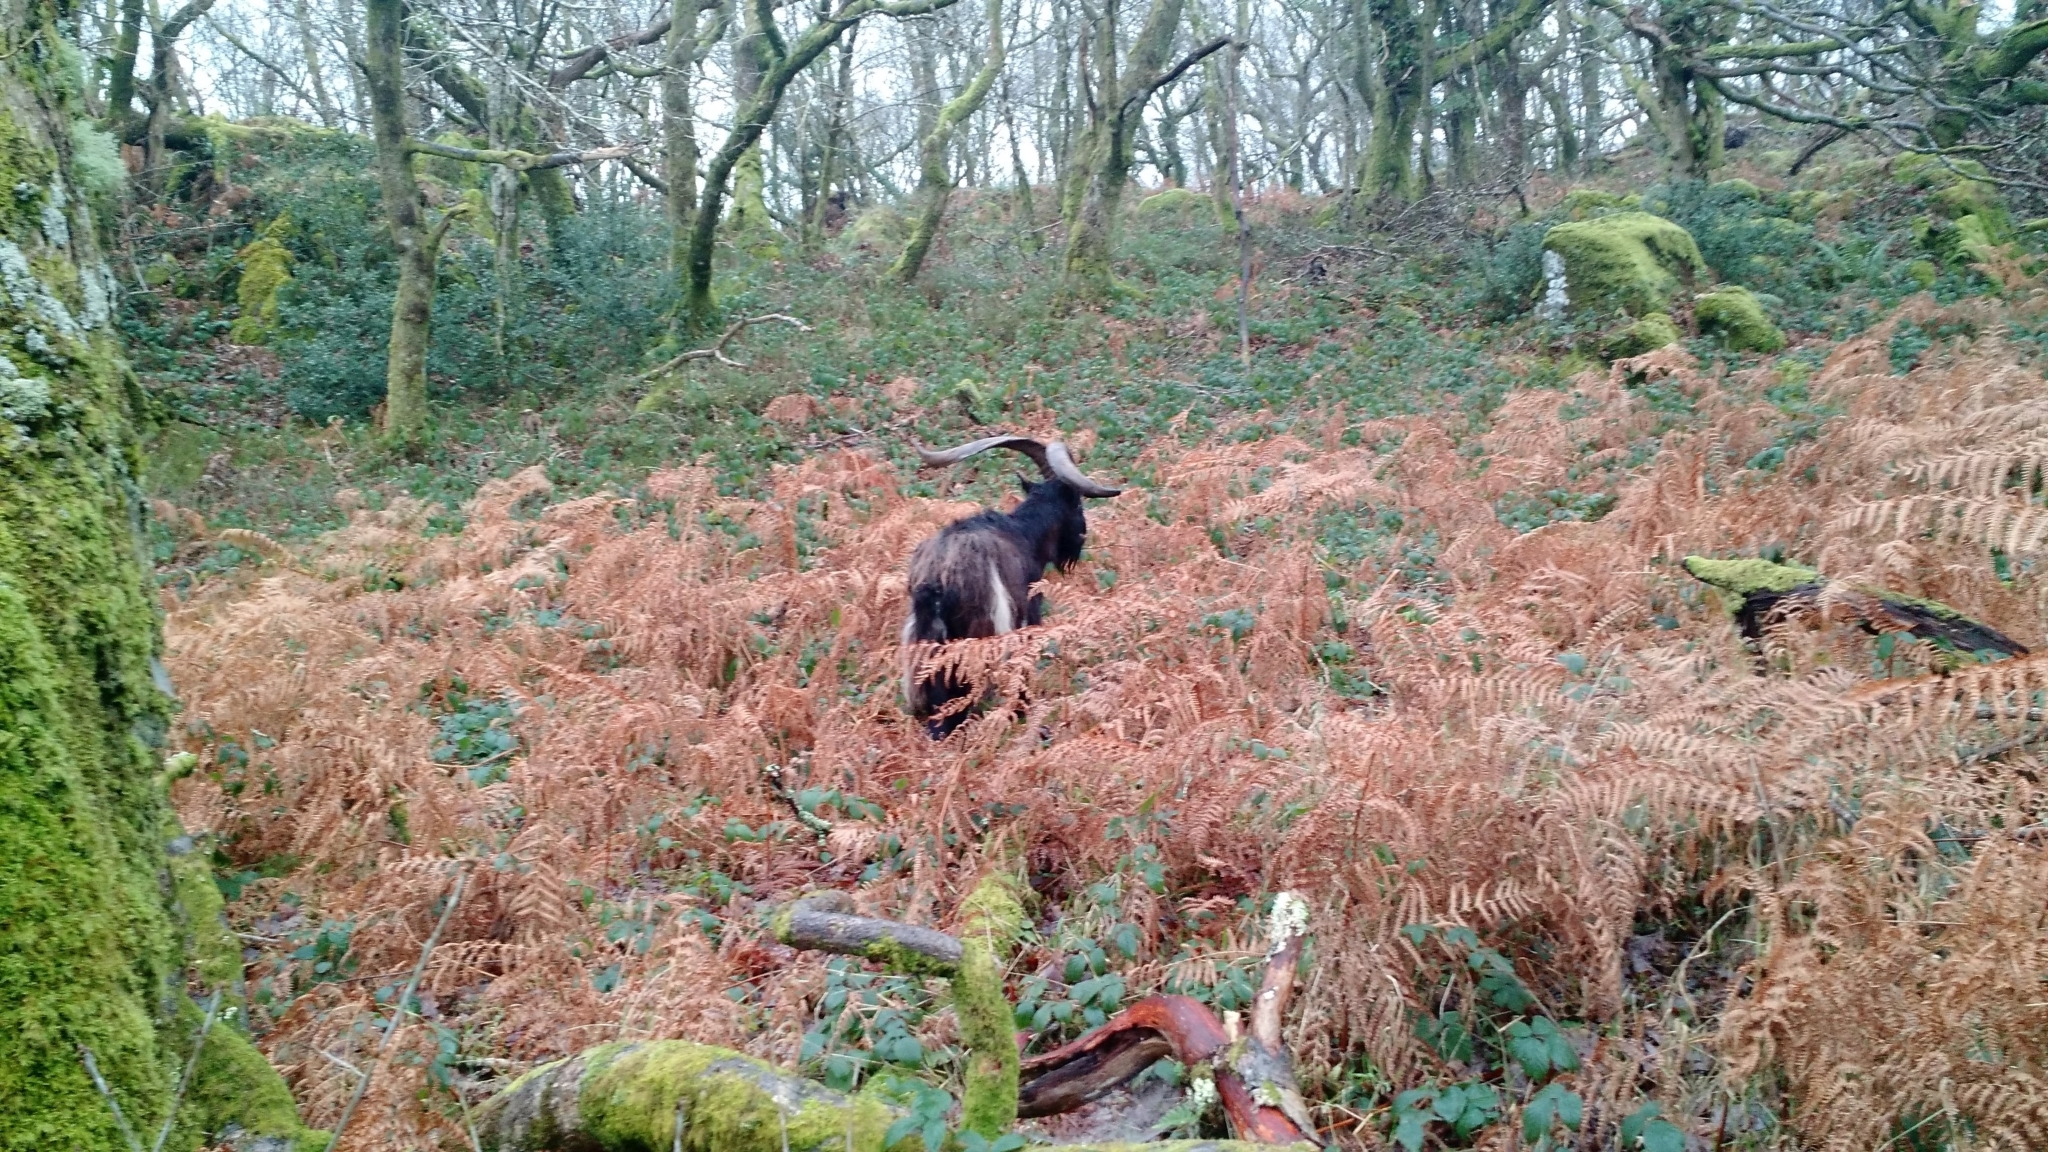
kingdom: Animalia
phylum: Chordata
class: Mammalia
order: Artiodactyla
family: Bovidae
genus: Capra
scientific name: Capra hircus
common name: Domestic goat
